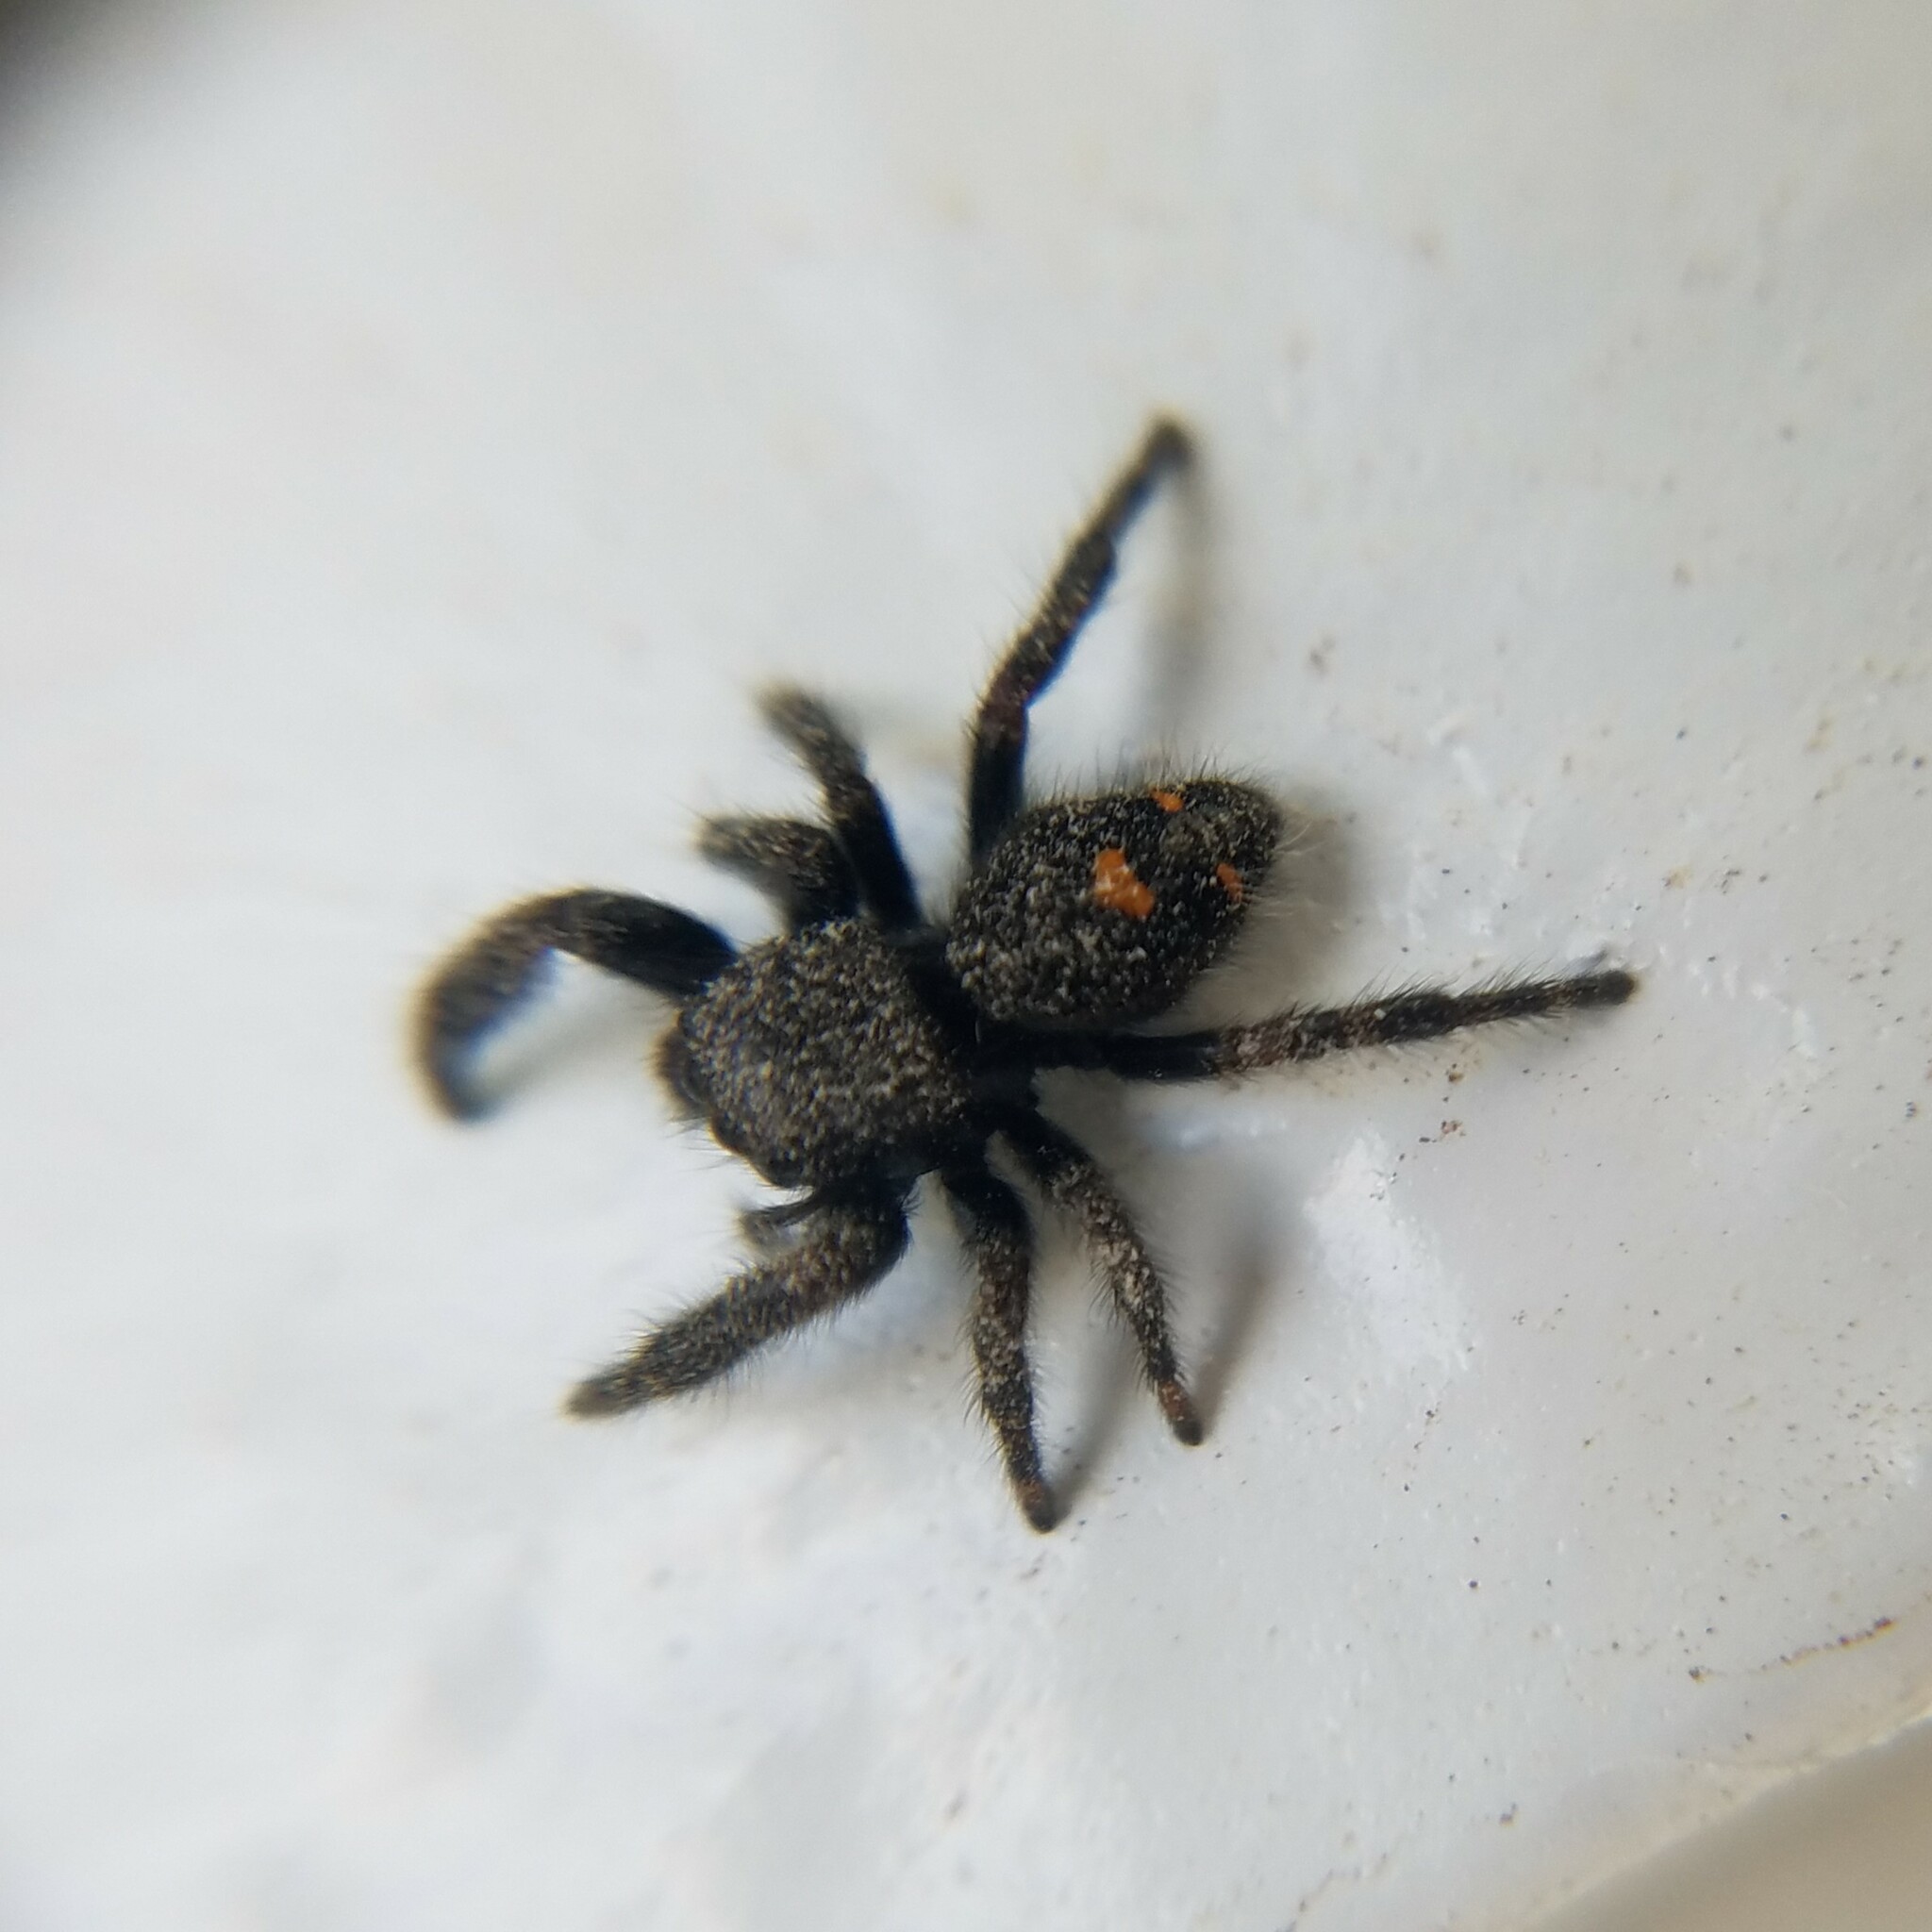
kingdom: Animalia
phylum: Arthropoda
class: Arachnida
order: Araneae
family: Salticidae
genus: Phidippus
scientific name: Phidippus audax
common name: Bold jumper
